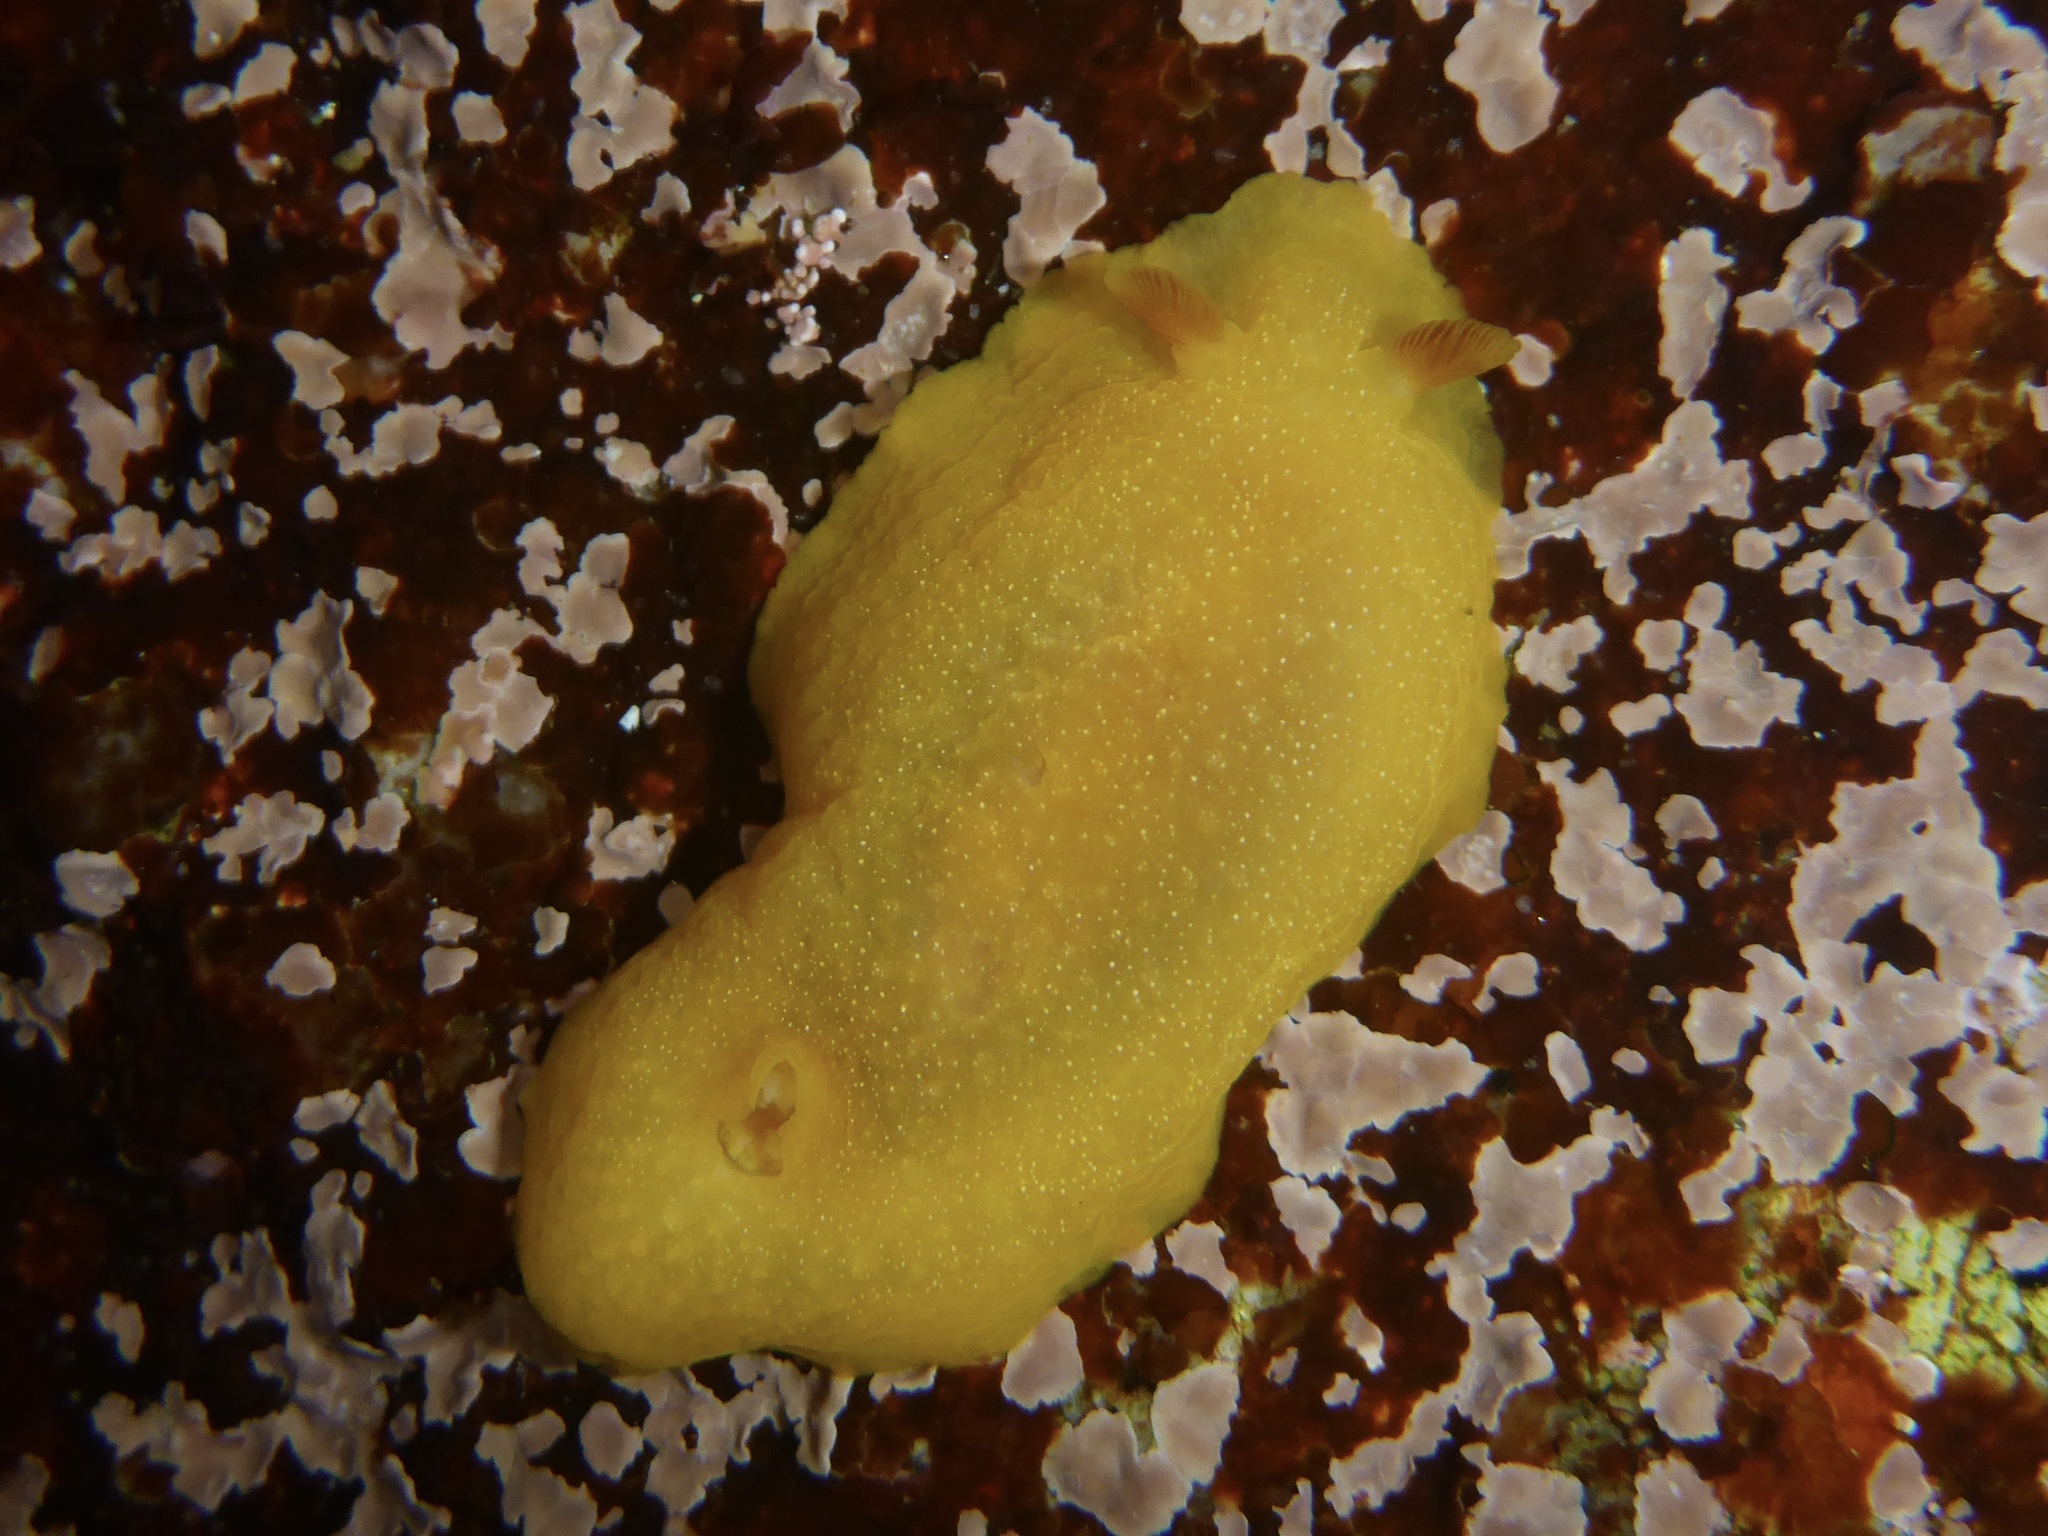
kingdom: Animalia
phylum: Mollusca
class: Gastropoda
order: Nudibranchia
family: Dendrodorididae
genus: Doriopsilla
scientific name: Doriopsilla albopunctata
